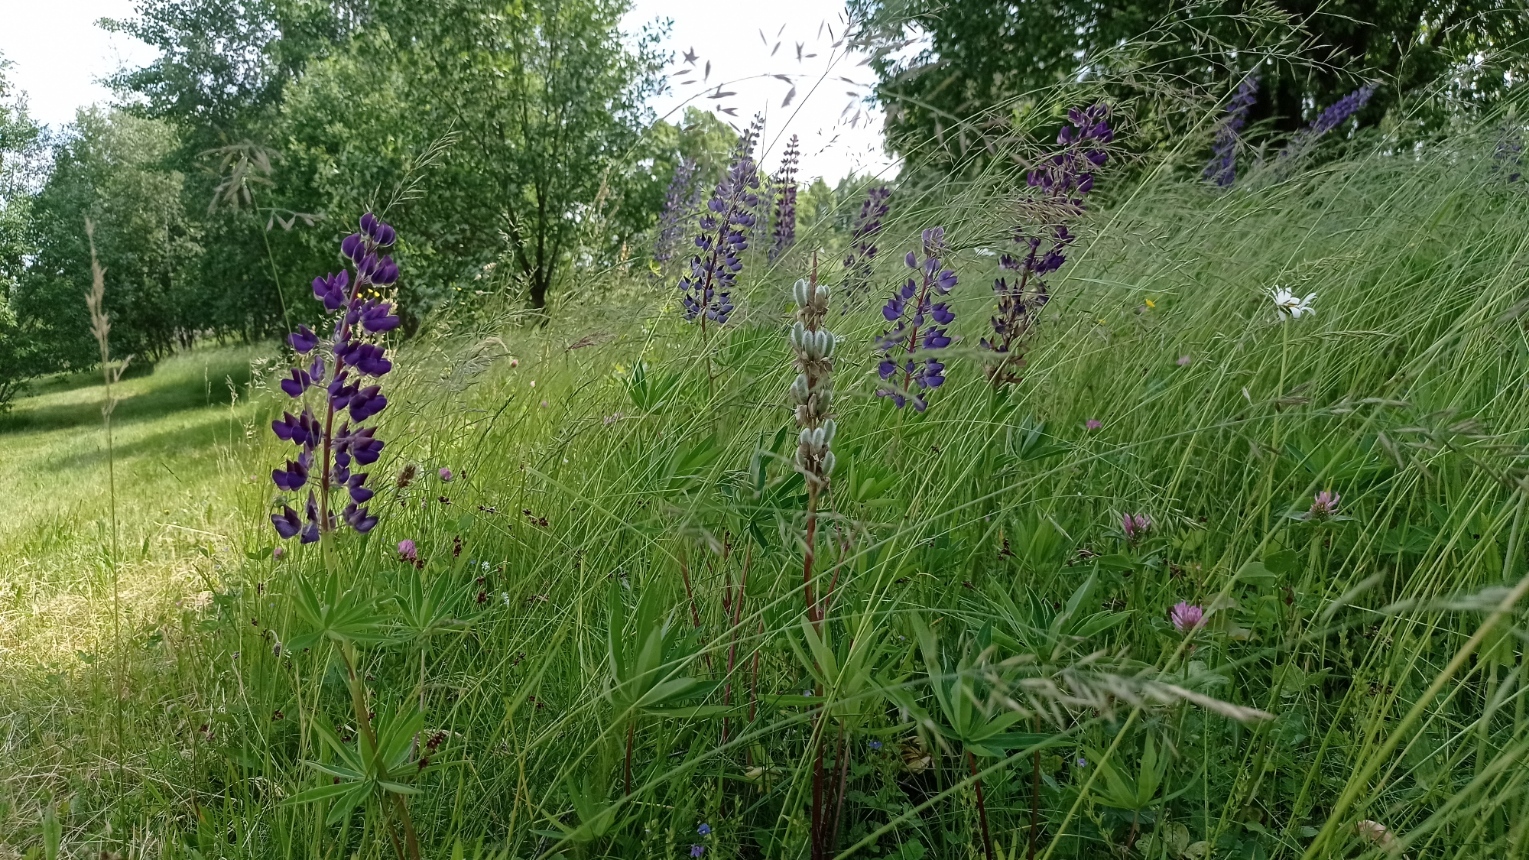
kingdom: Plantae
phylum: Tracheophyta
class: Magnoliopsida
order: Fabales
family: Fabaceae
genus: Lupinus
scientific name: Lupinus polyphyllus
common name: Garden lupin
